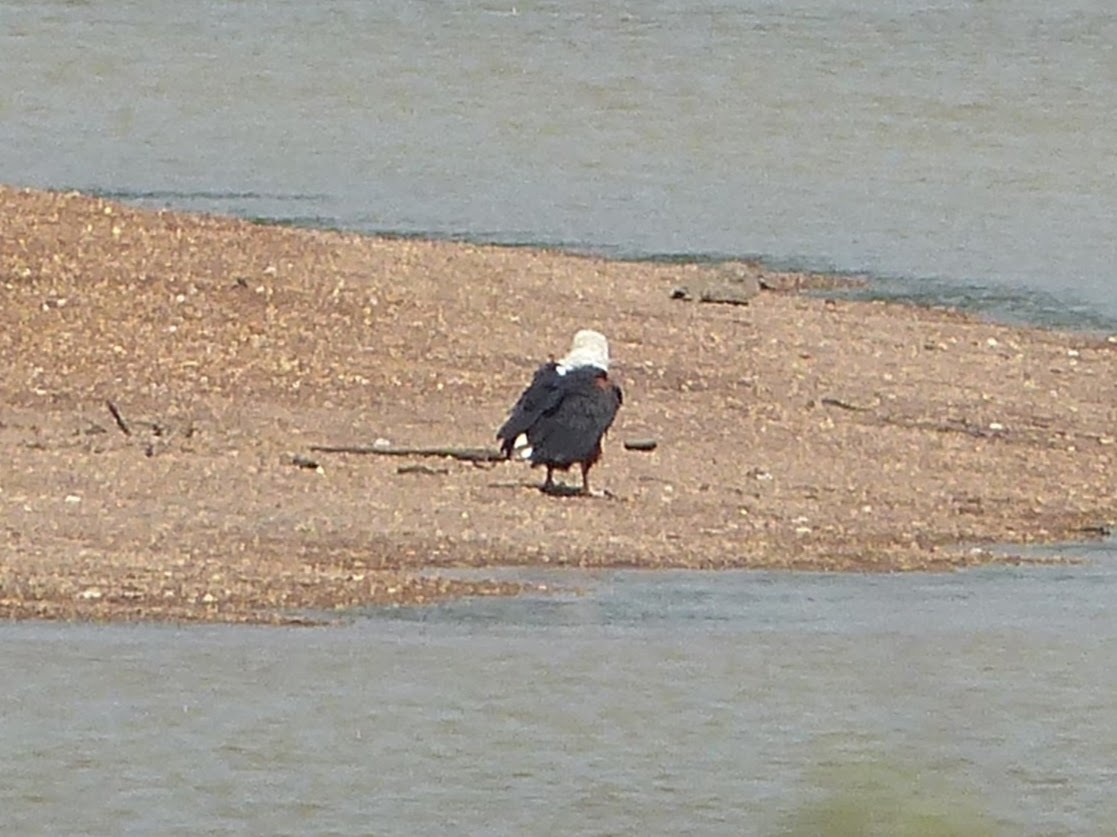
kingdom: Animalia
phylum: Chordata
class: Aves
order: Accipitriformes
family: Accipitridae
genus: Haliaeetus
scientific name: Haliaeetus vocifer
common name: African fish eagle
